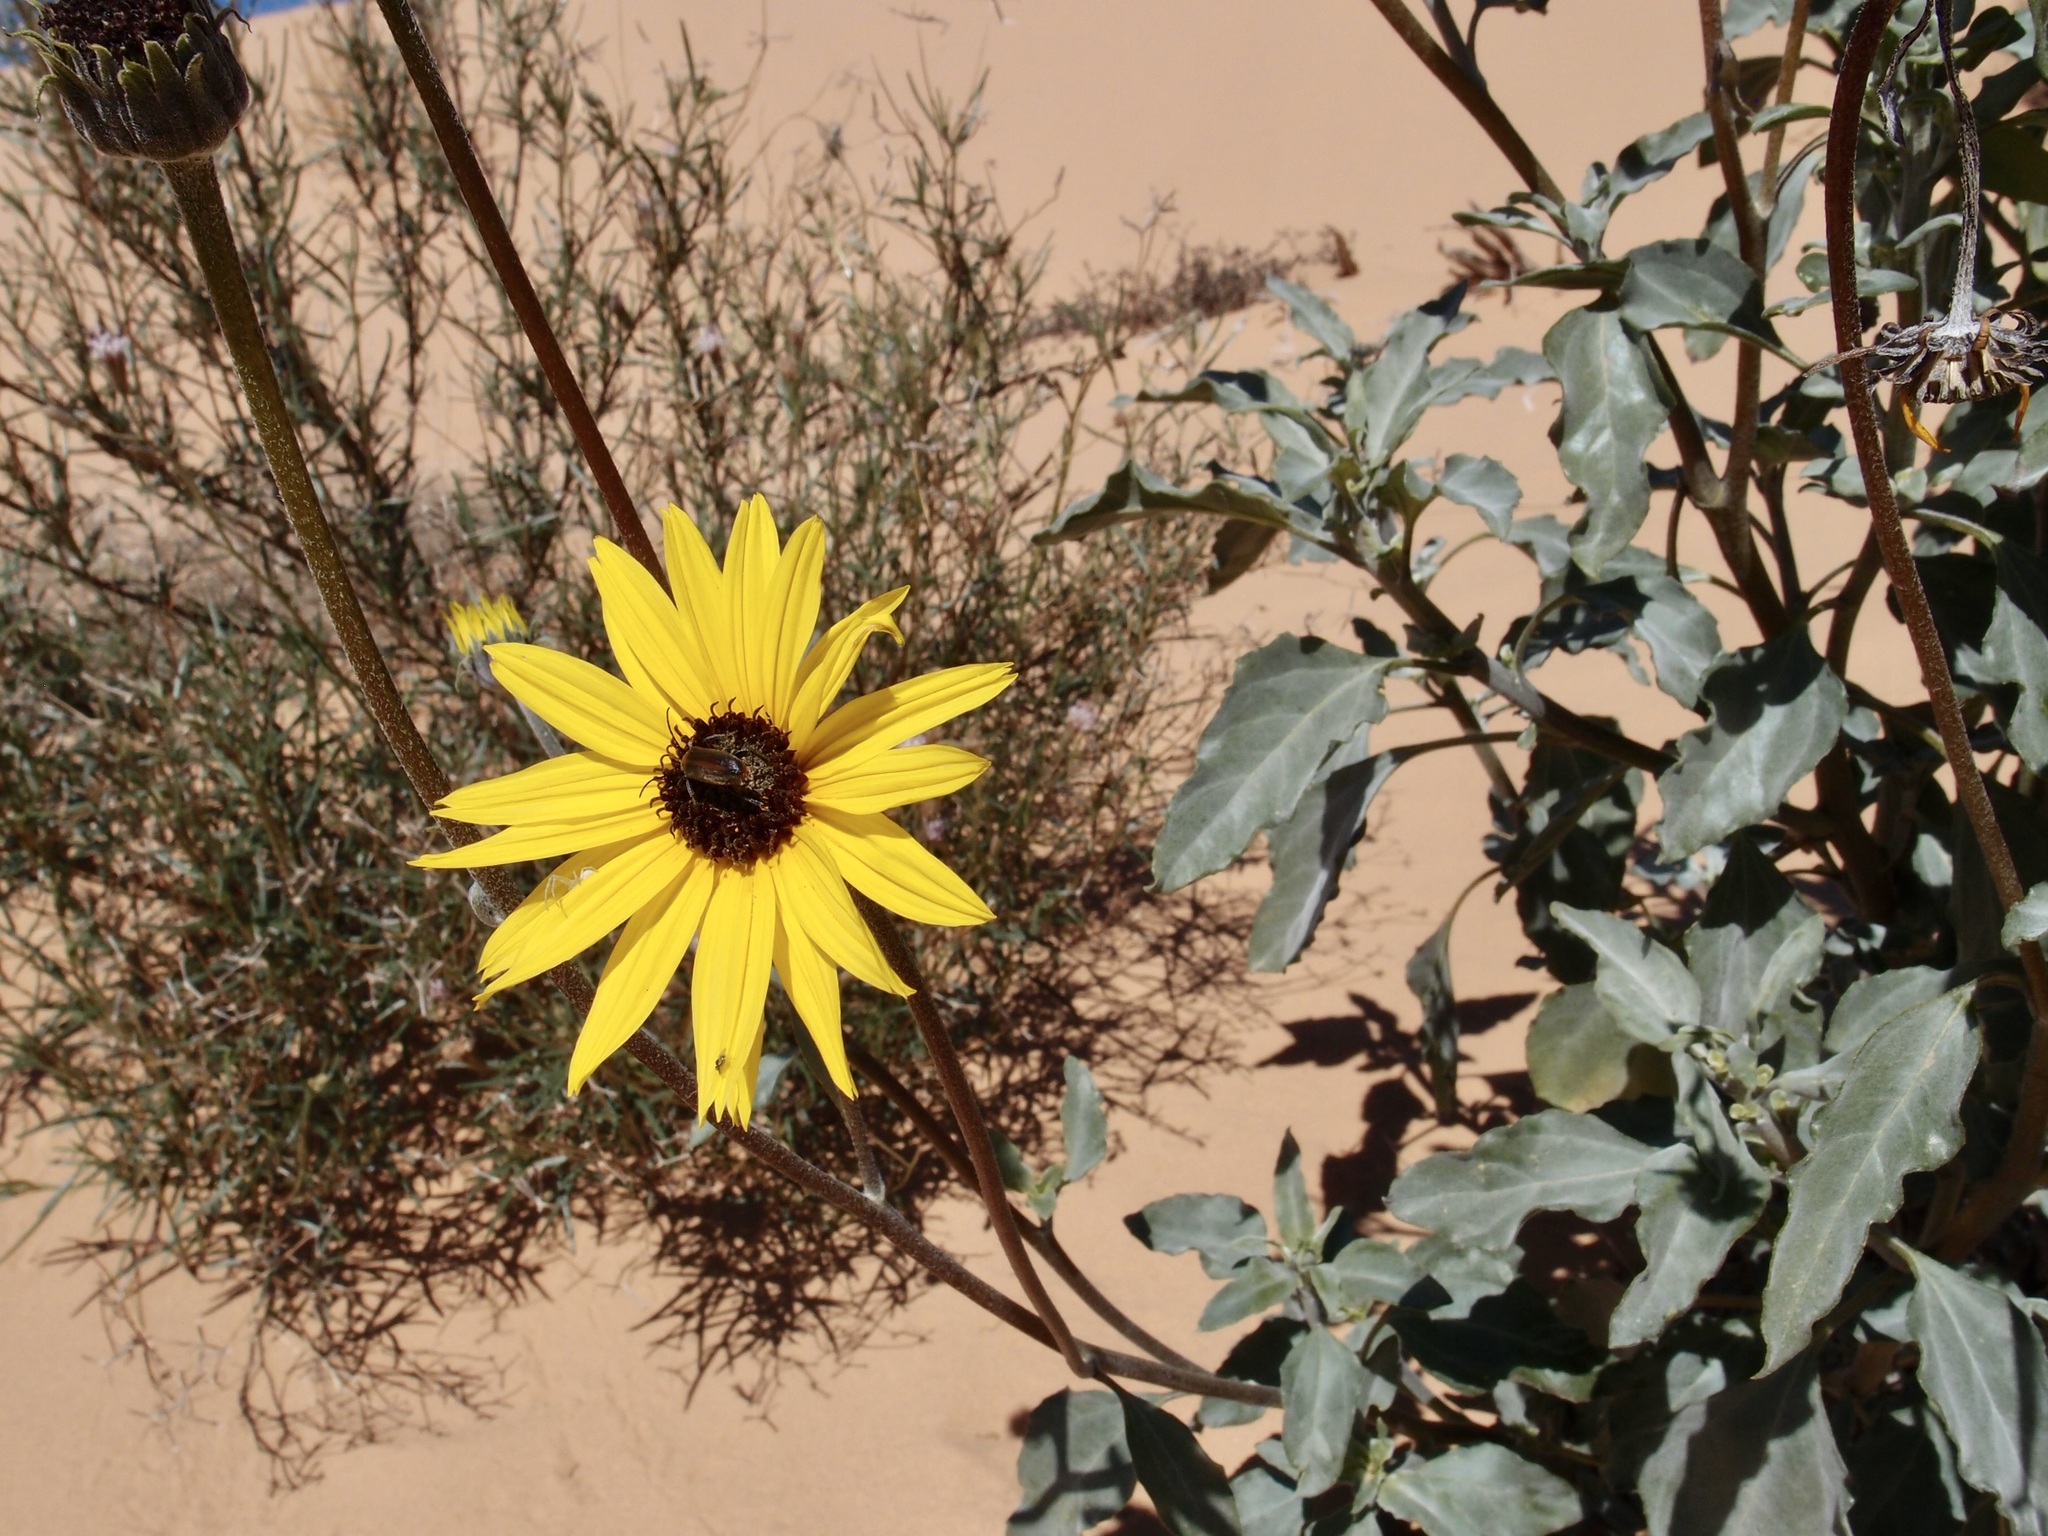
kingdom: Plantae
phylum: Tracheophyta
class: Magnoliopsida
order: Asterales
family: Asteraceae
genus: Helianthus
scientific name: Helianthus petiolaris
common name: Lesser sunflower
